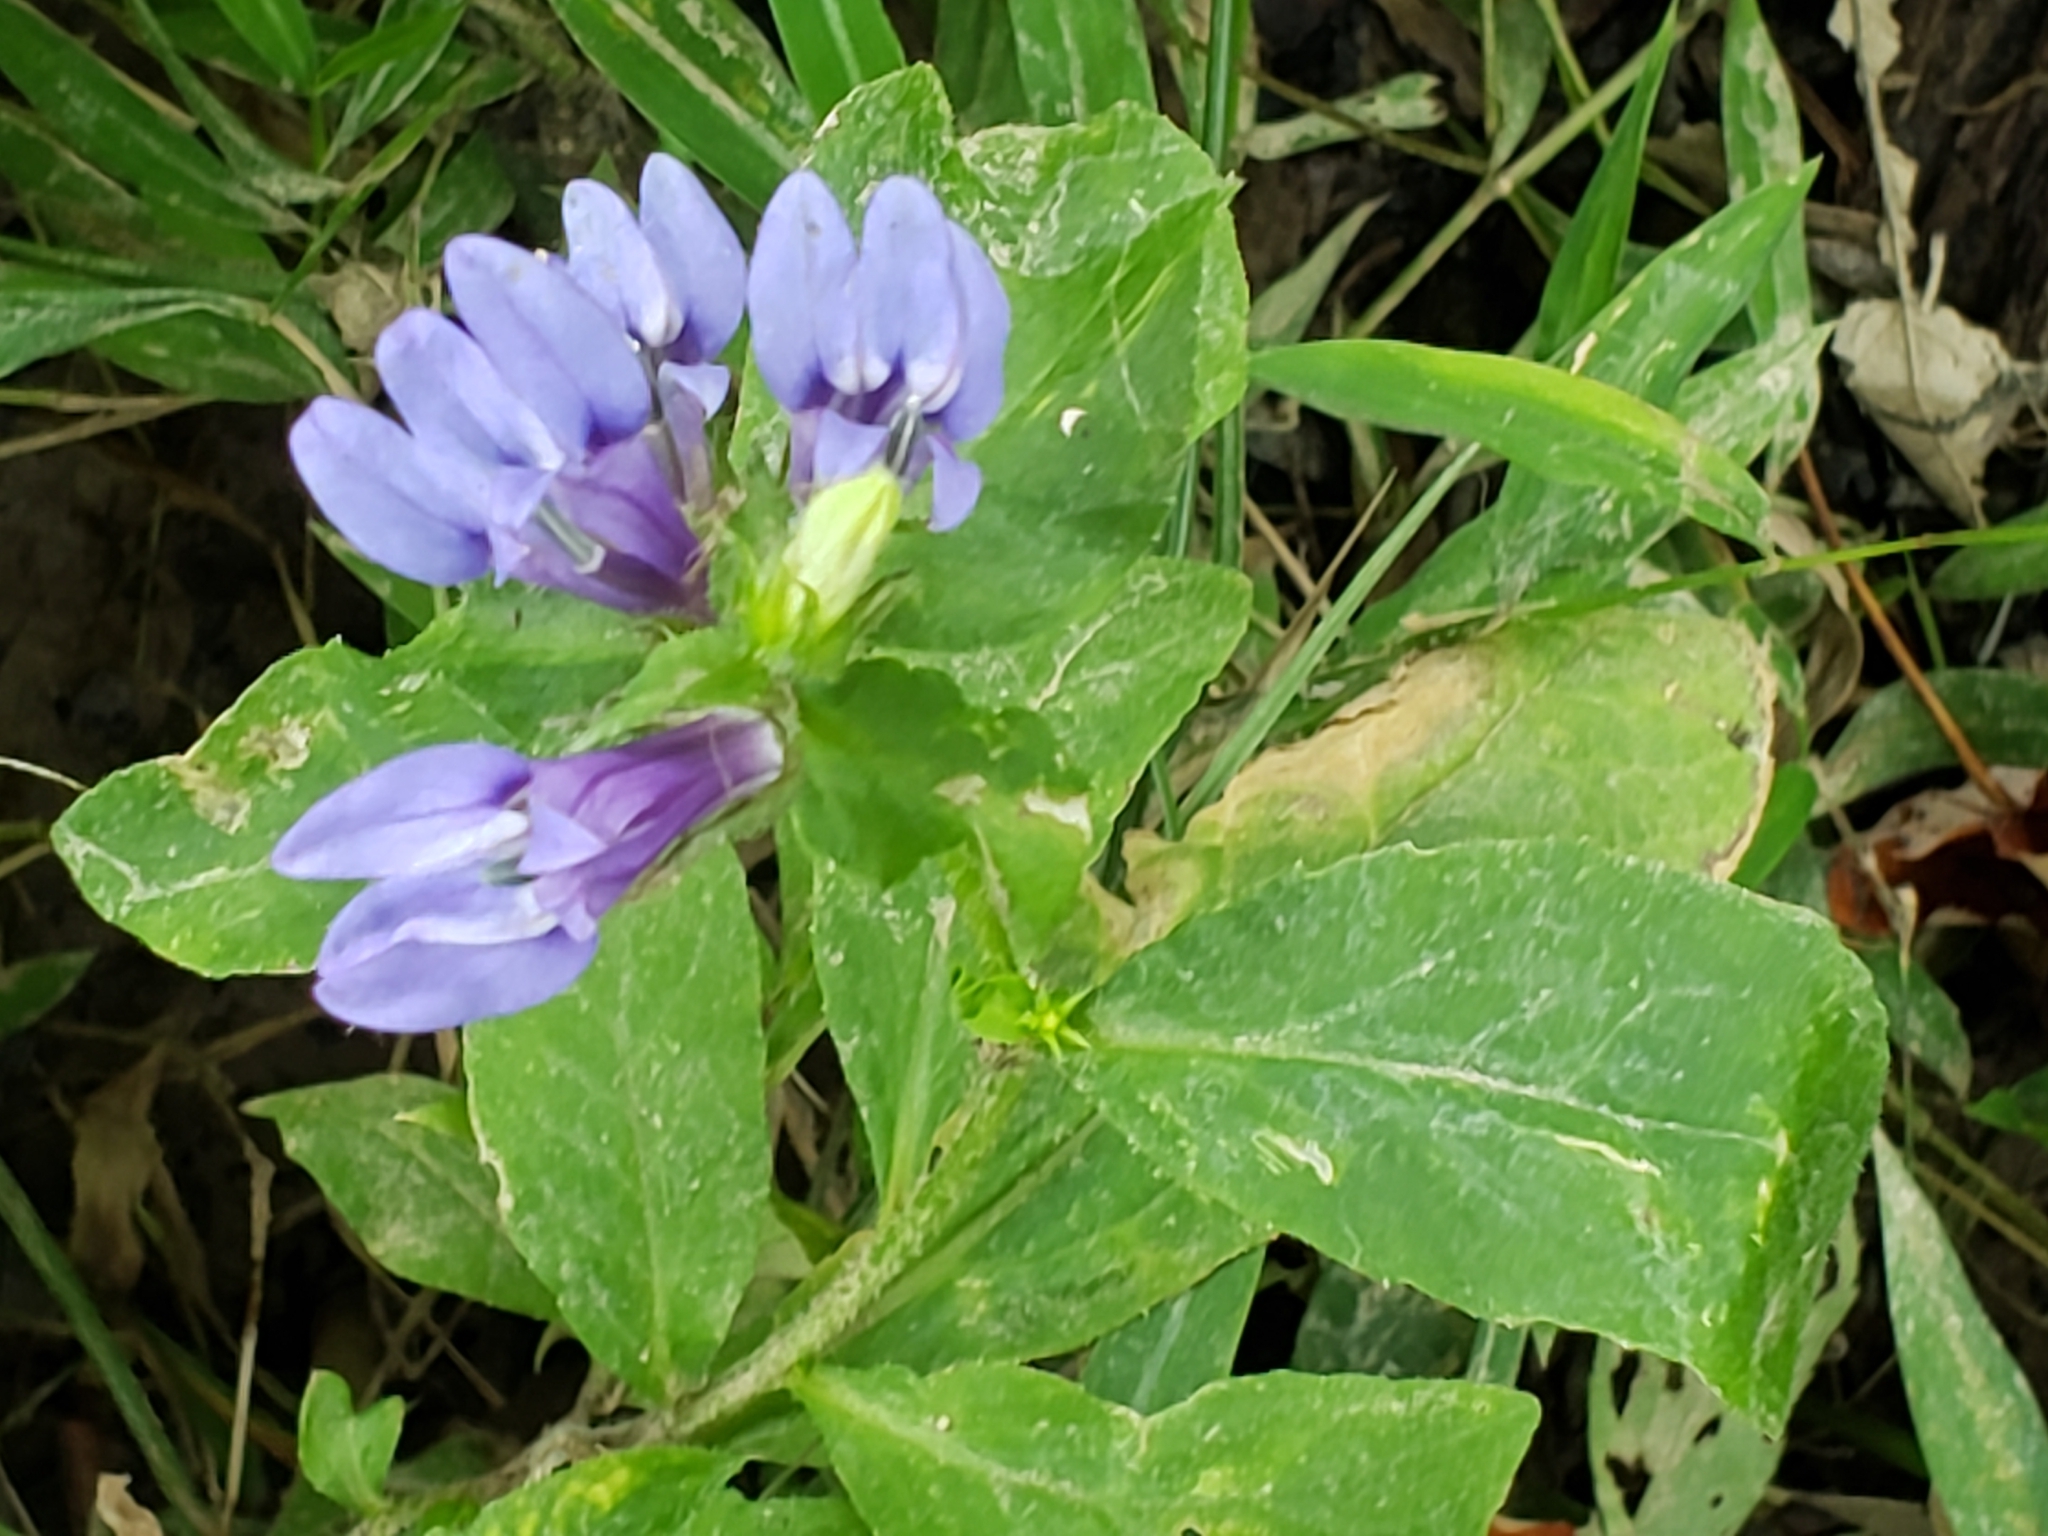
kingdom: Plantae
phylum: Tracheophyta
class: Magnoliopsida
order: Asterales
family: Campanulaceae
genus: Lobelia
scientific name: Lobelia siphilitica
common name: Great lobelia
